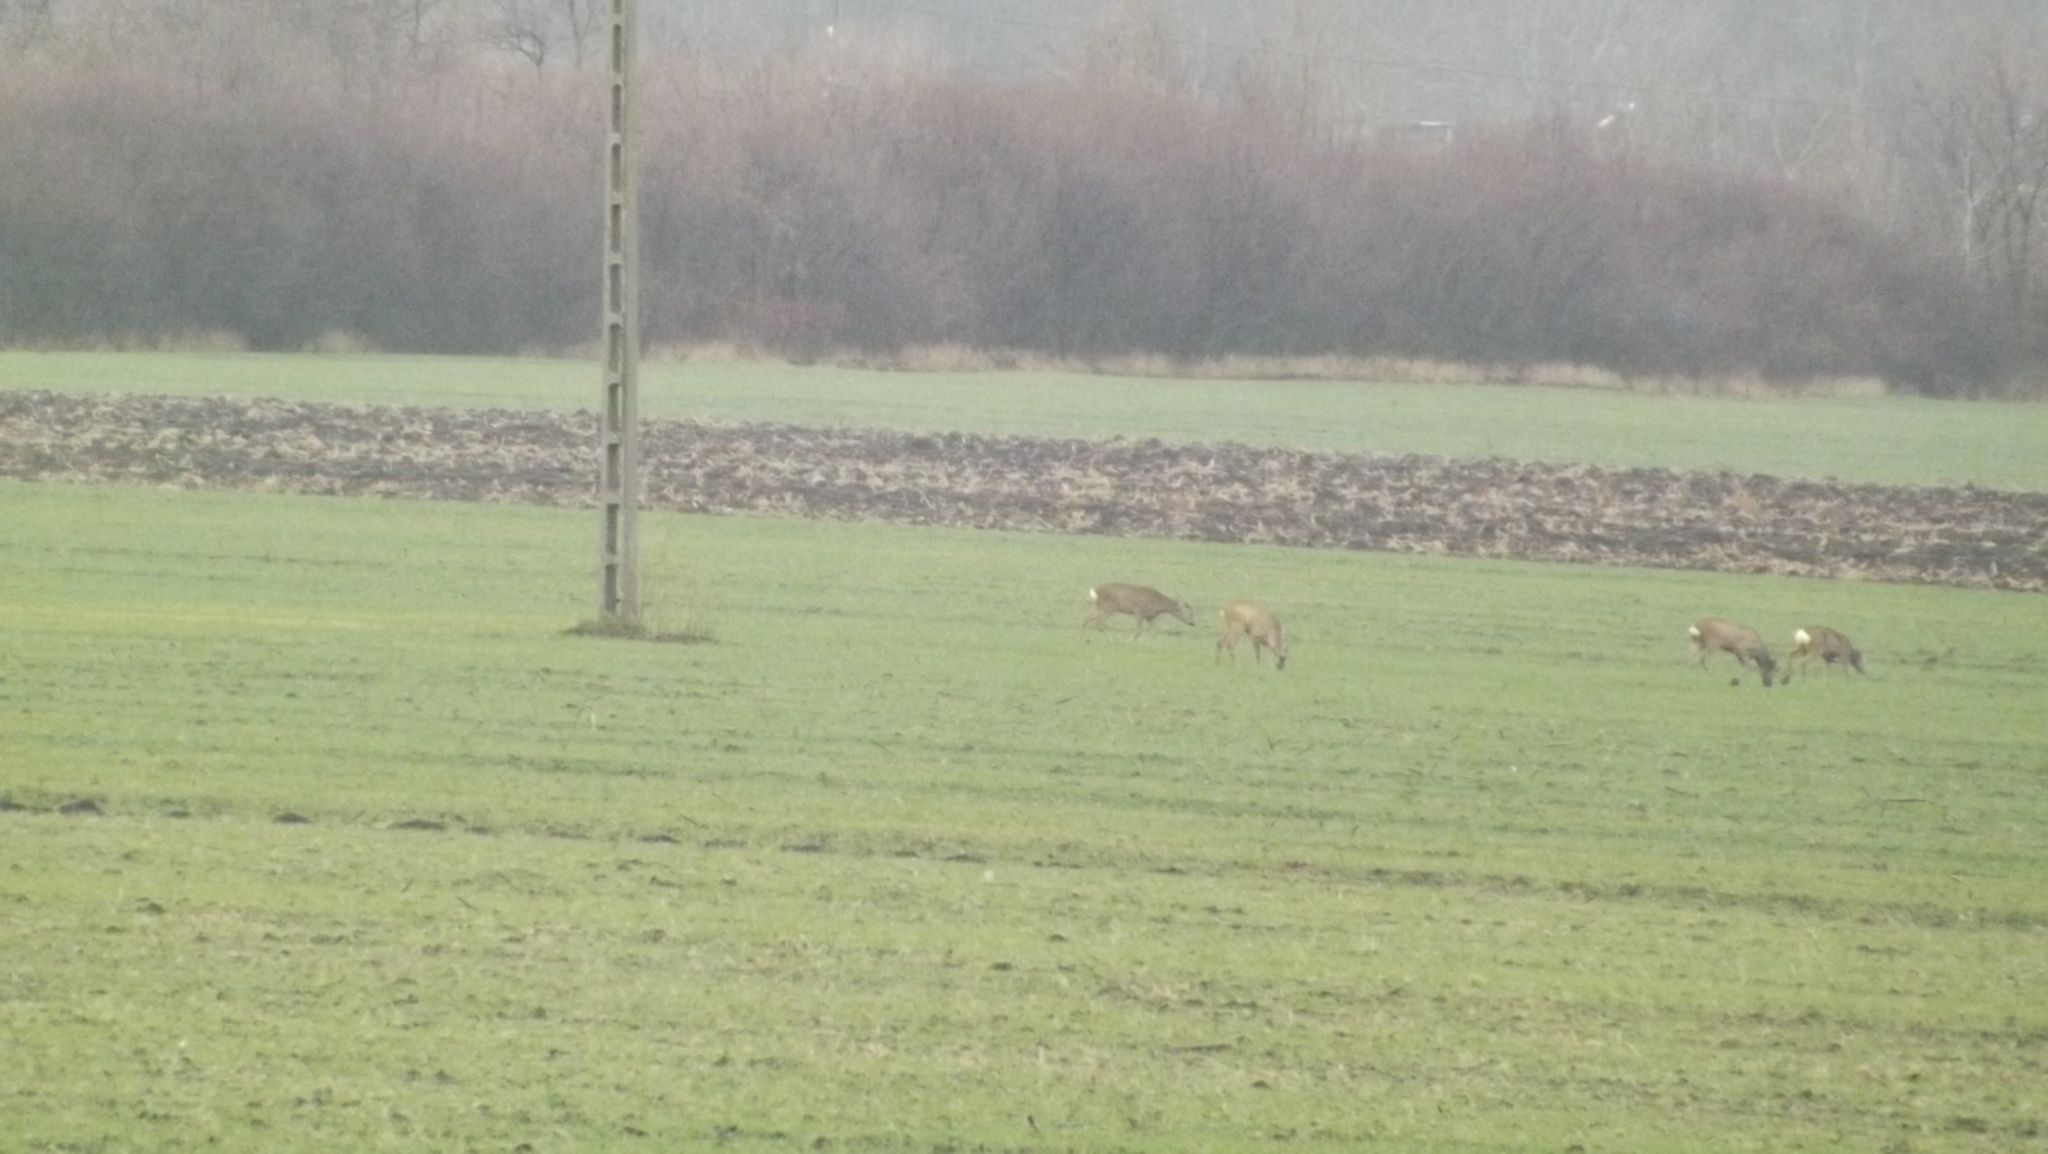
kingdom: Animalia
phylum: Chordata
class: Mammalia
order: Artiodactyla
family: Cervidae
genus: Capreolus
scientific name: Capreolus capreolus
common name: Western roe deer
